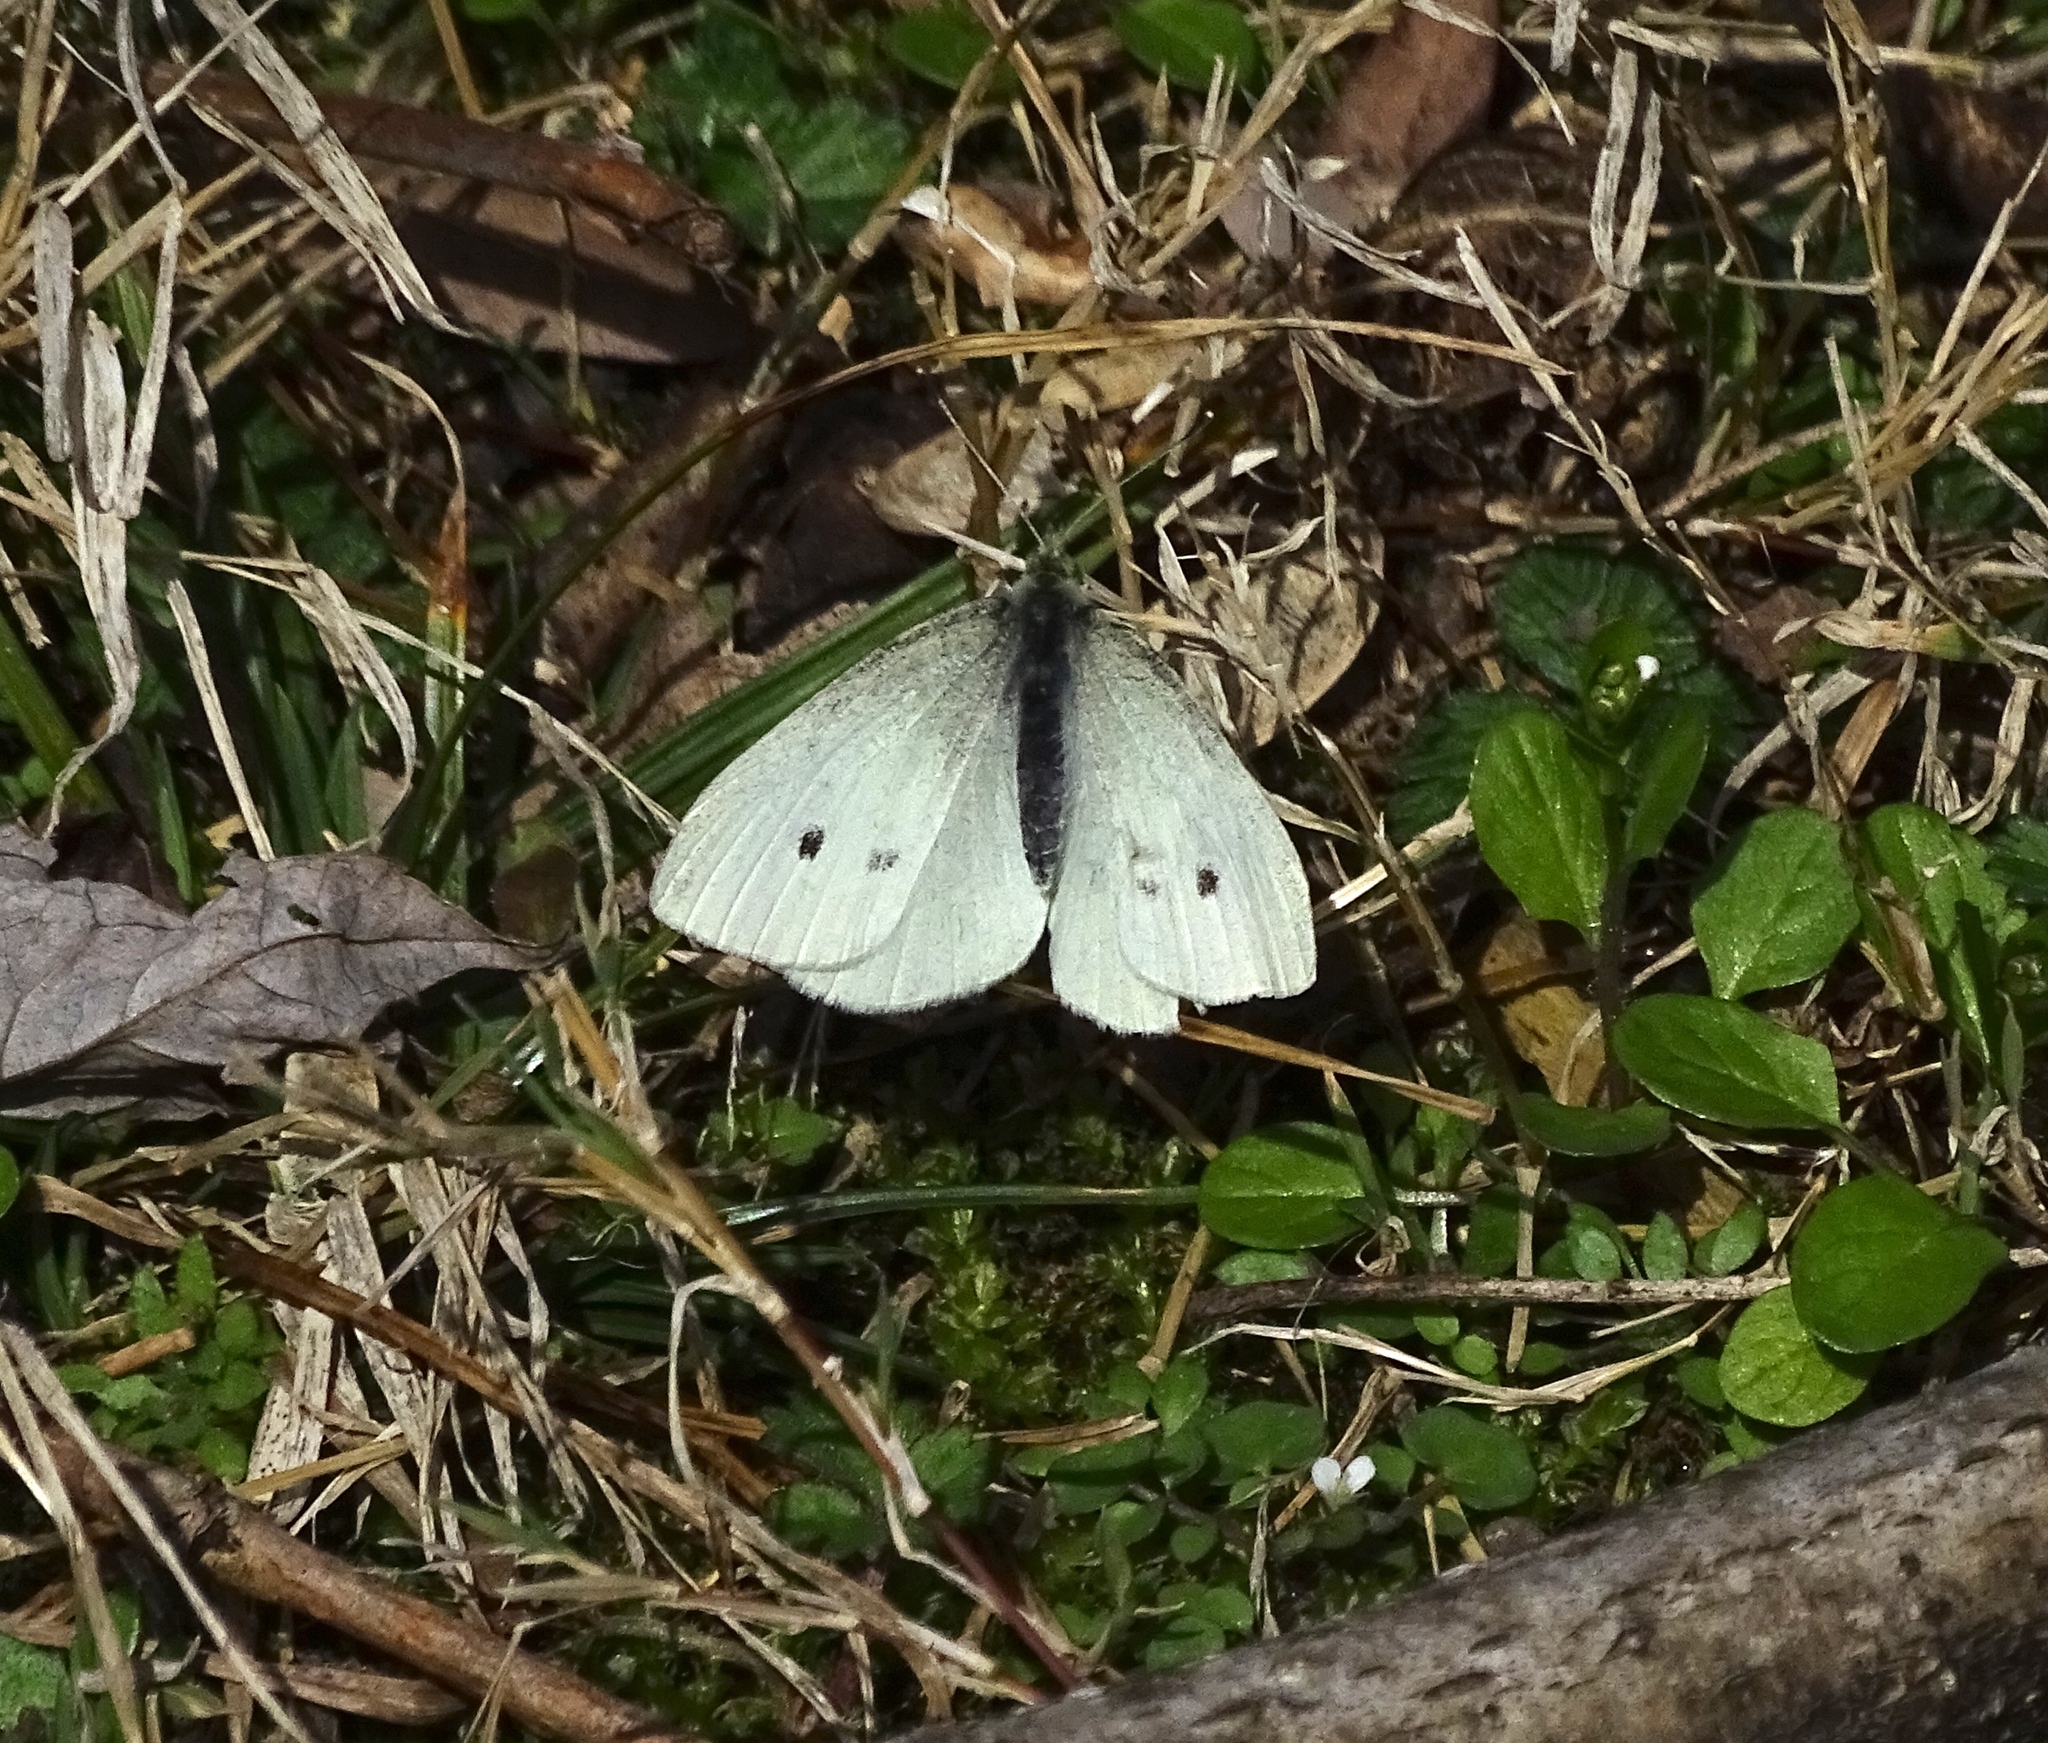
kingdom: Animalia
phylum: Arthropoda
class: Insecta
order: Lepidoptera
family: Pieridae
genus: Pieris
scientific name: Pieris rapae
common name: Small white
